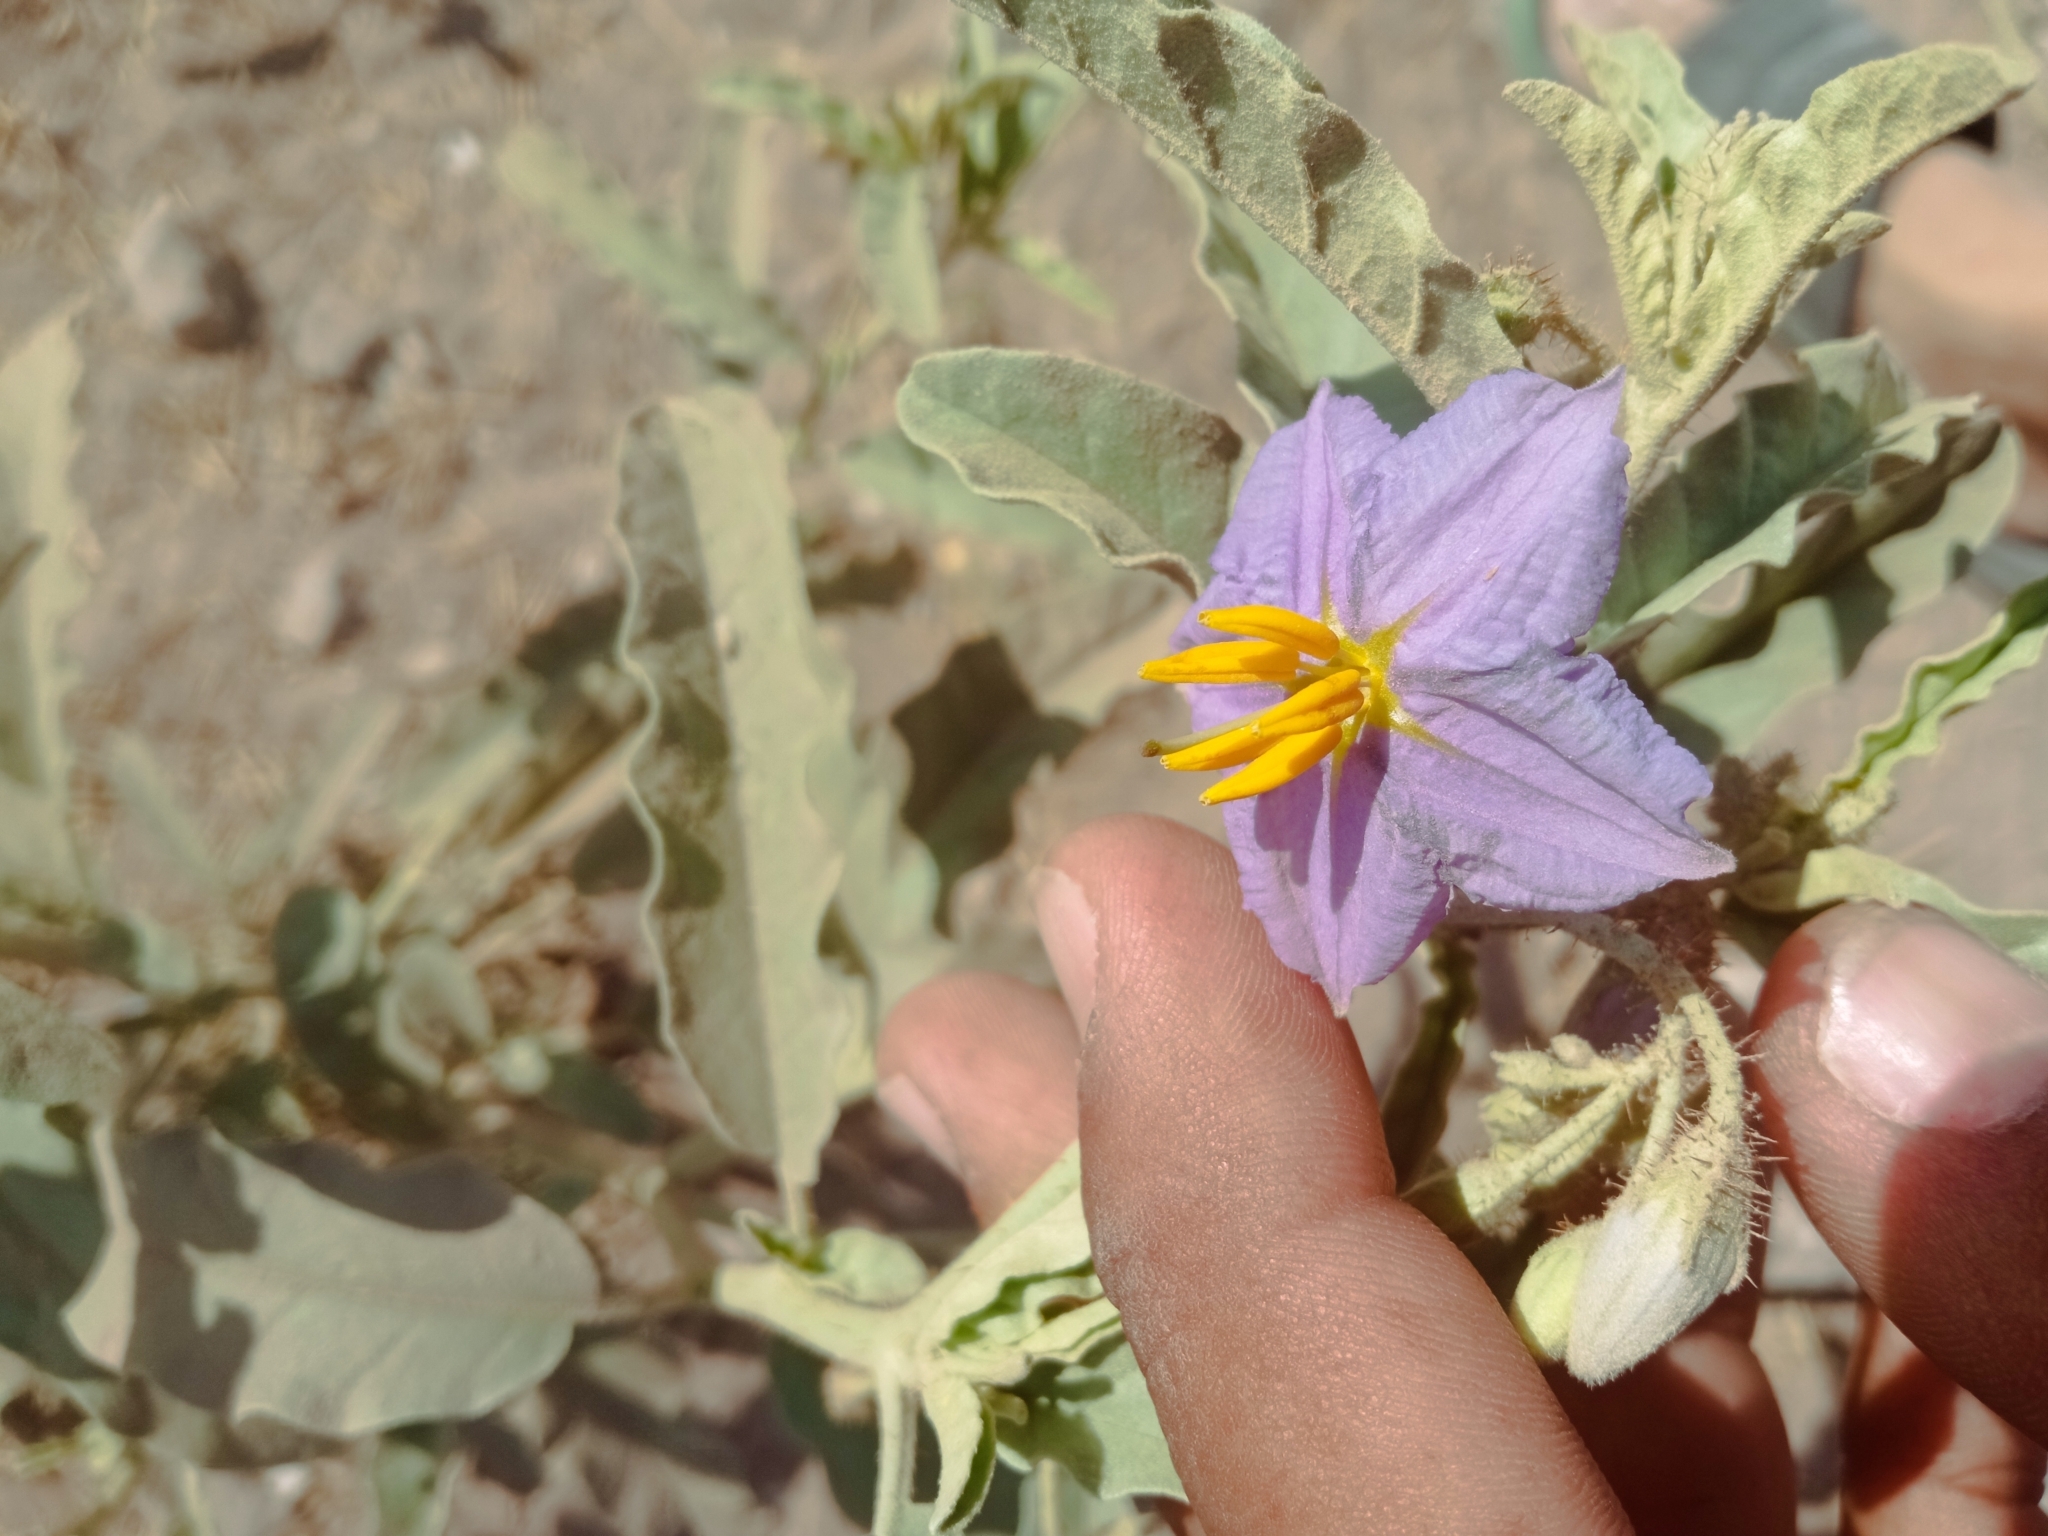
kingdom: Plantae
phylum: Tracheophyta
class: Magnoliopsida
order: Solanales
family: Solanaceae
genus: Solanum
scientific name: Solanum elaeagnifolium
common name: Silverleaf nightshade
